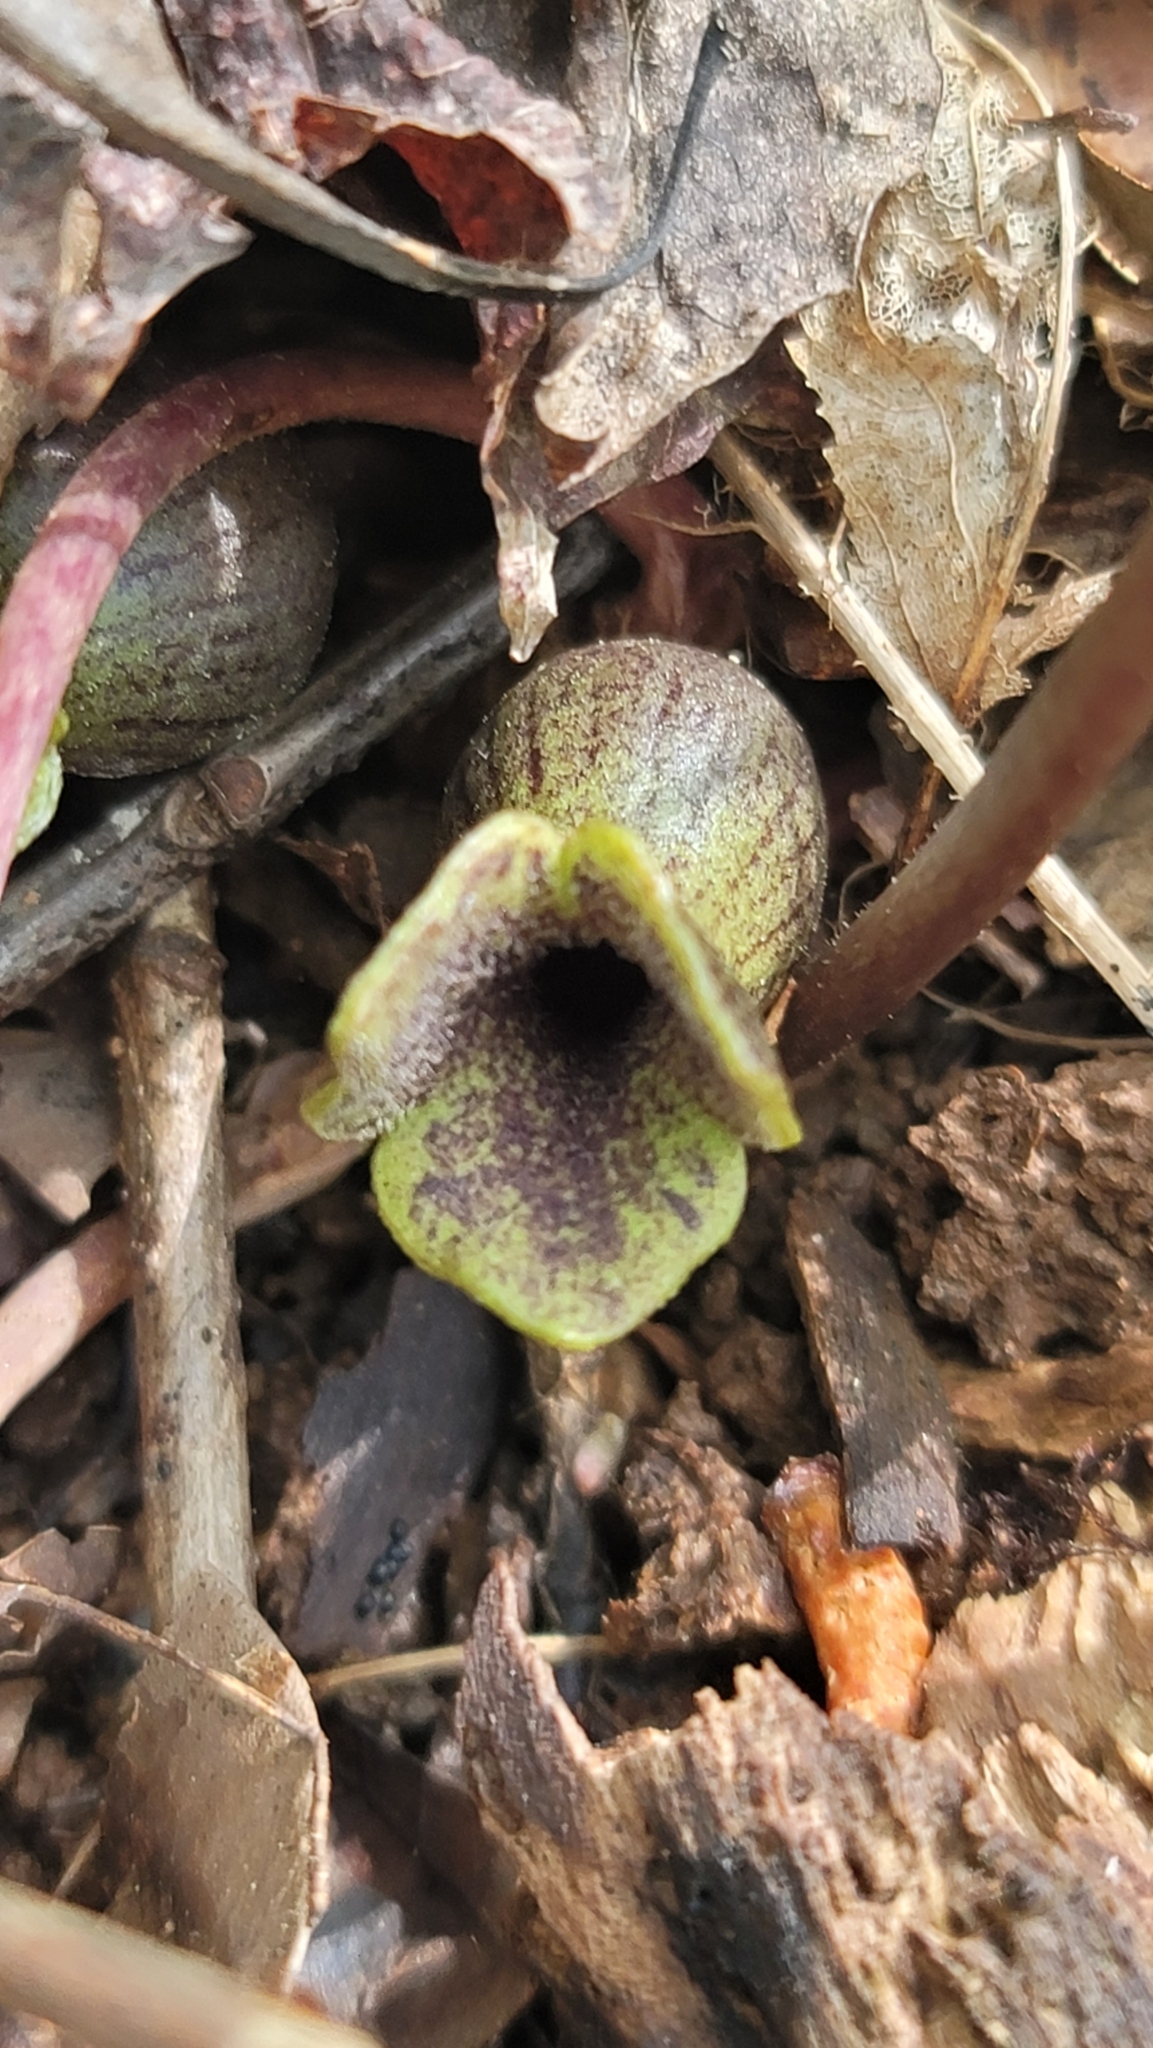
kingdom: Plantae
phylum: Tracheophyta
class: Magnoliopsida
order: Piperales
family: Aristolochiaceae
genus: Hexastylis
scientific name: Hexastylis arifolia
